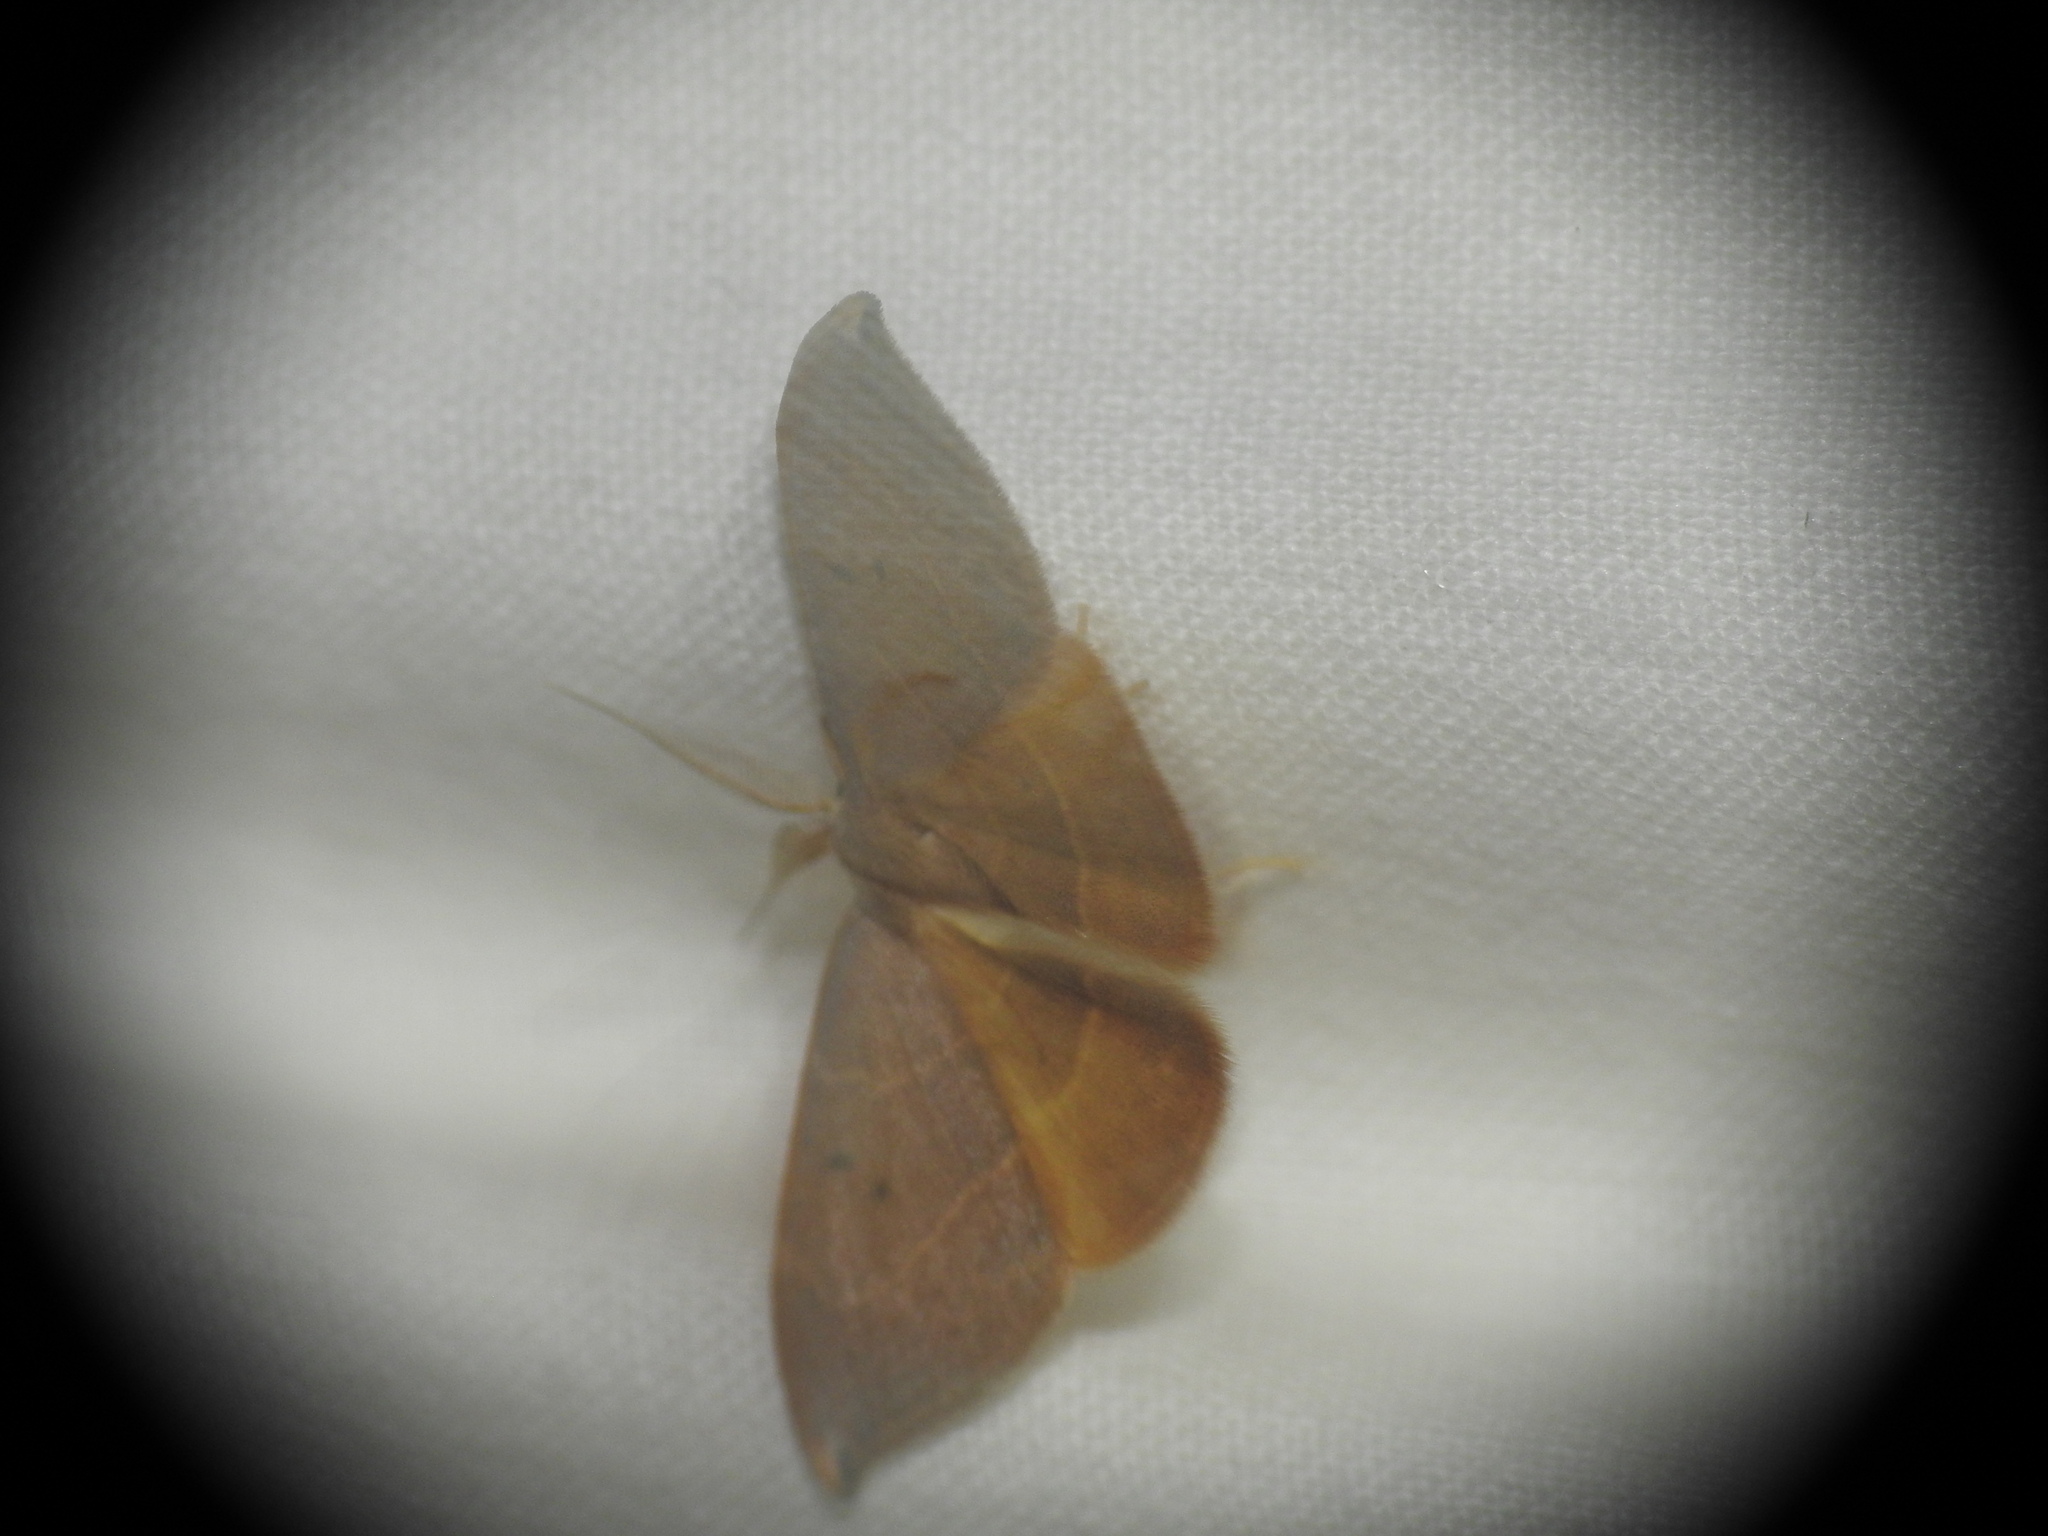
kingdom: Animalia
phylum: Arthropoda
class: Insecta
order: Lepidoptera
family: Drepanidae
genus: Watsonalla
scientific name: Watsonalla uncinula
